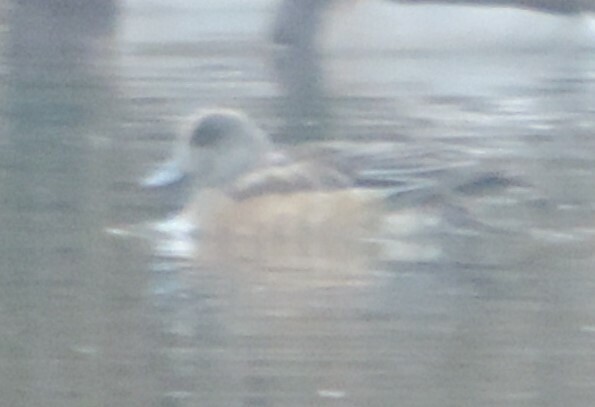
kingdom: Animalia
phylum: Chordata
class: Aves
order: Anseriformes
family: Anatidae
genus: Mareca
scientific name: Mareca americana
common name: American wigeon
